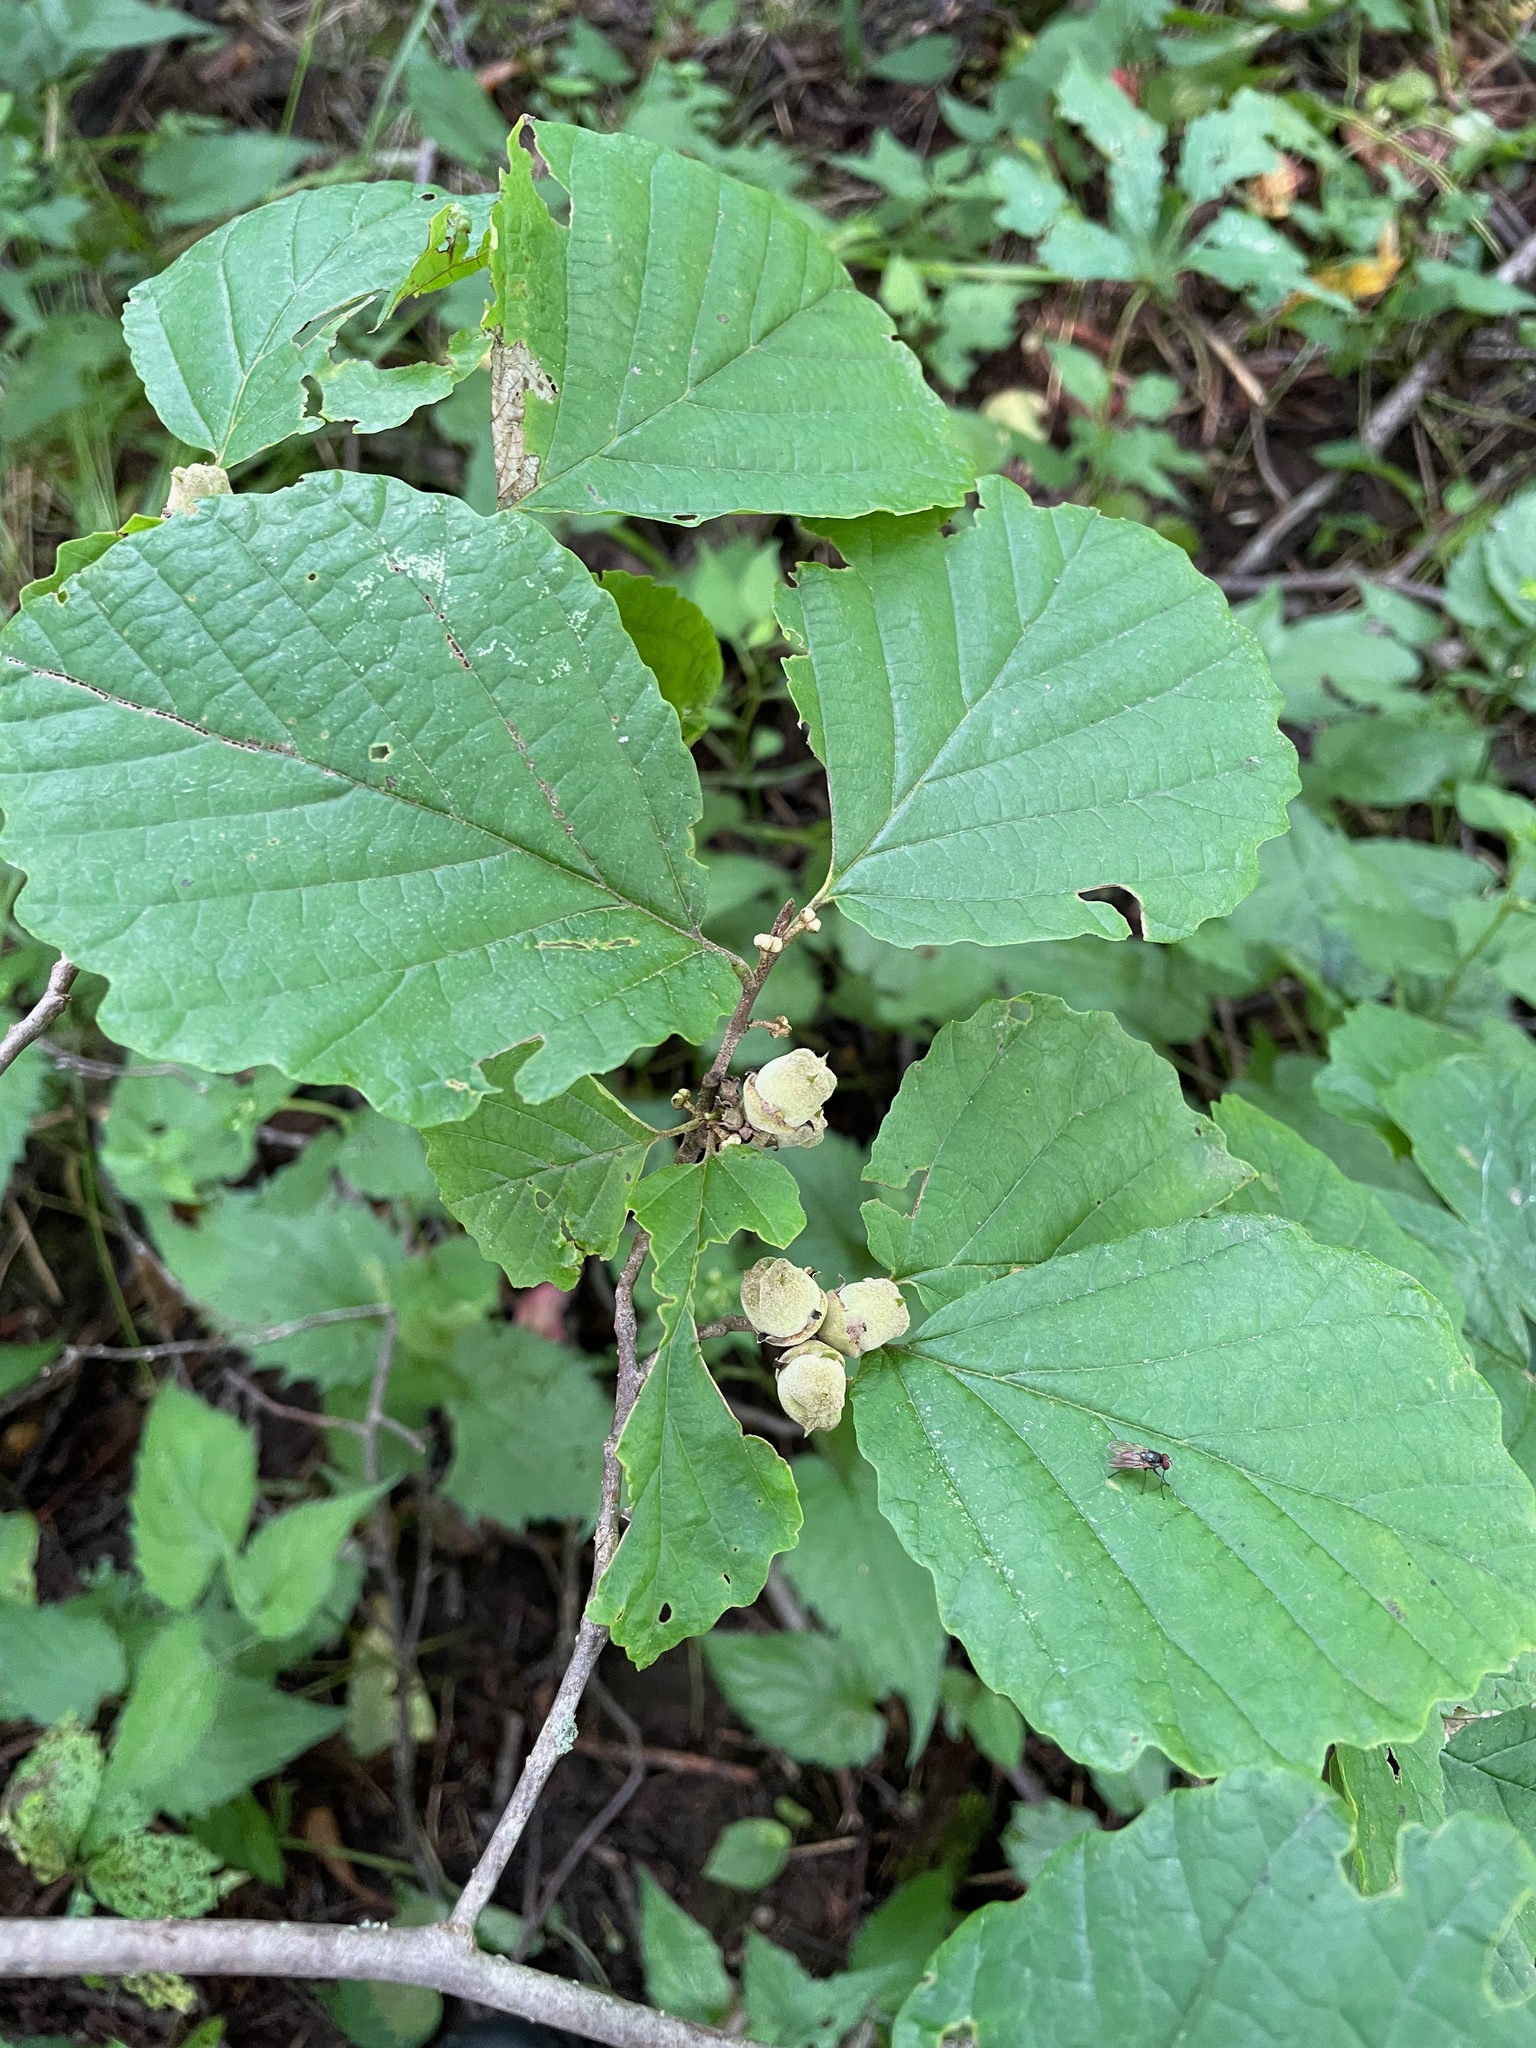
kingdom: Plantae
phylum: Tracheophyta
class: Magnoliopsida
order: Saxifragales
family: Hamamelidaceae
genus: Hamamelis
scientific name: Hamamelis virginiana
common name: Witch-hazel
